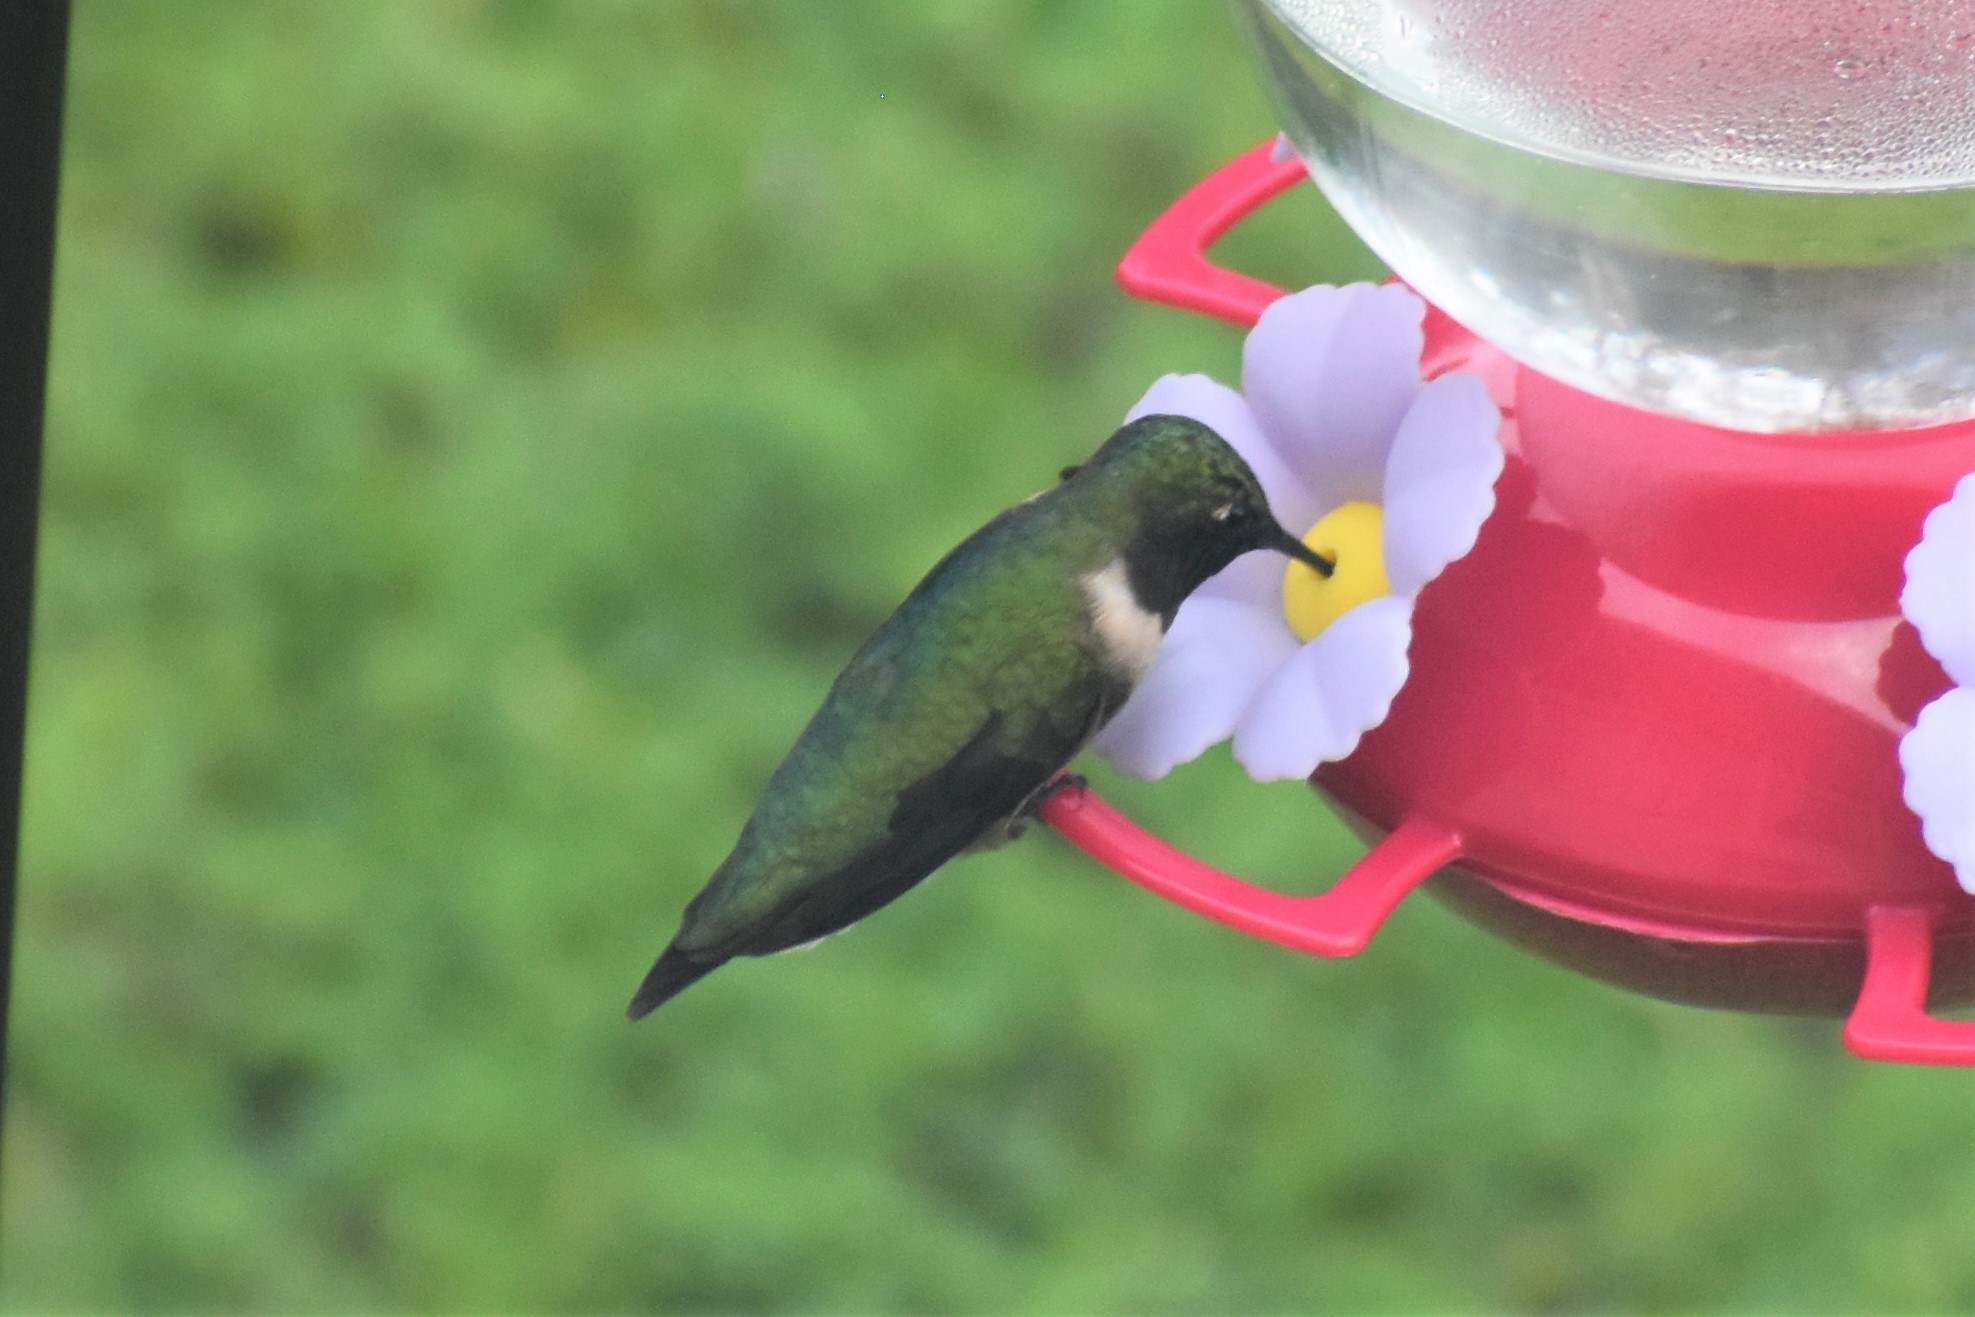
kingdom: Animalia
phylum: Chordata
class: Aves
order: Apodiformes
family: Trochilidae
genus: Archilochus
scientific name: Archilochus colubris
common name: Ruby-throated hummingbird
